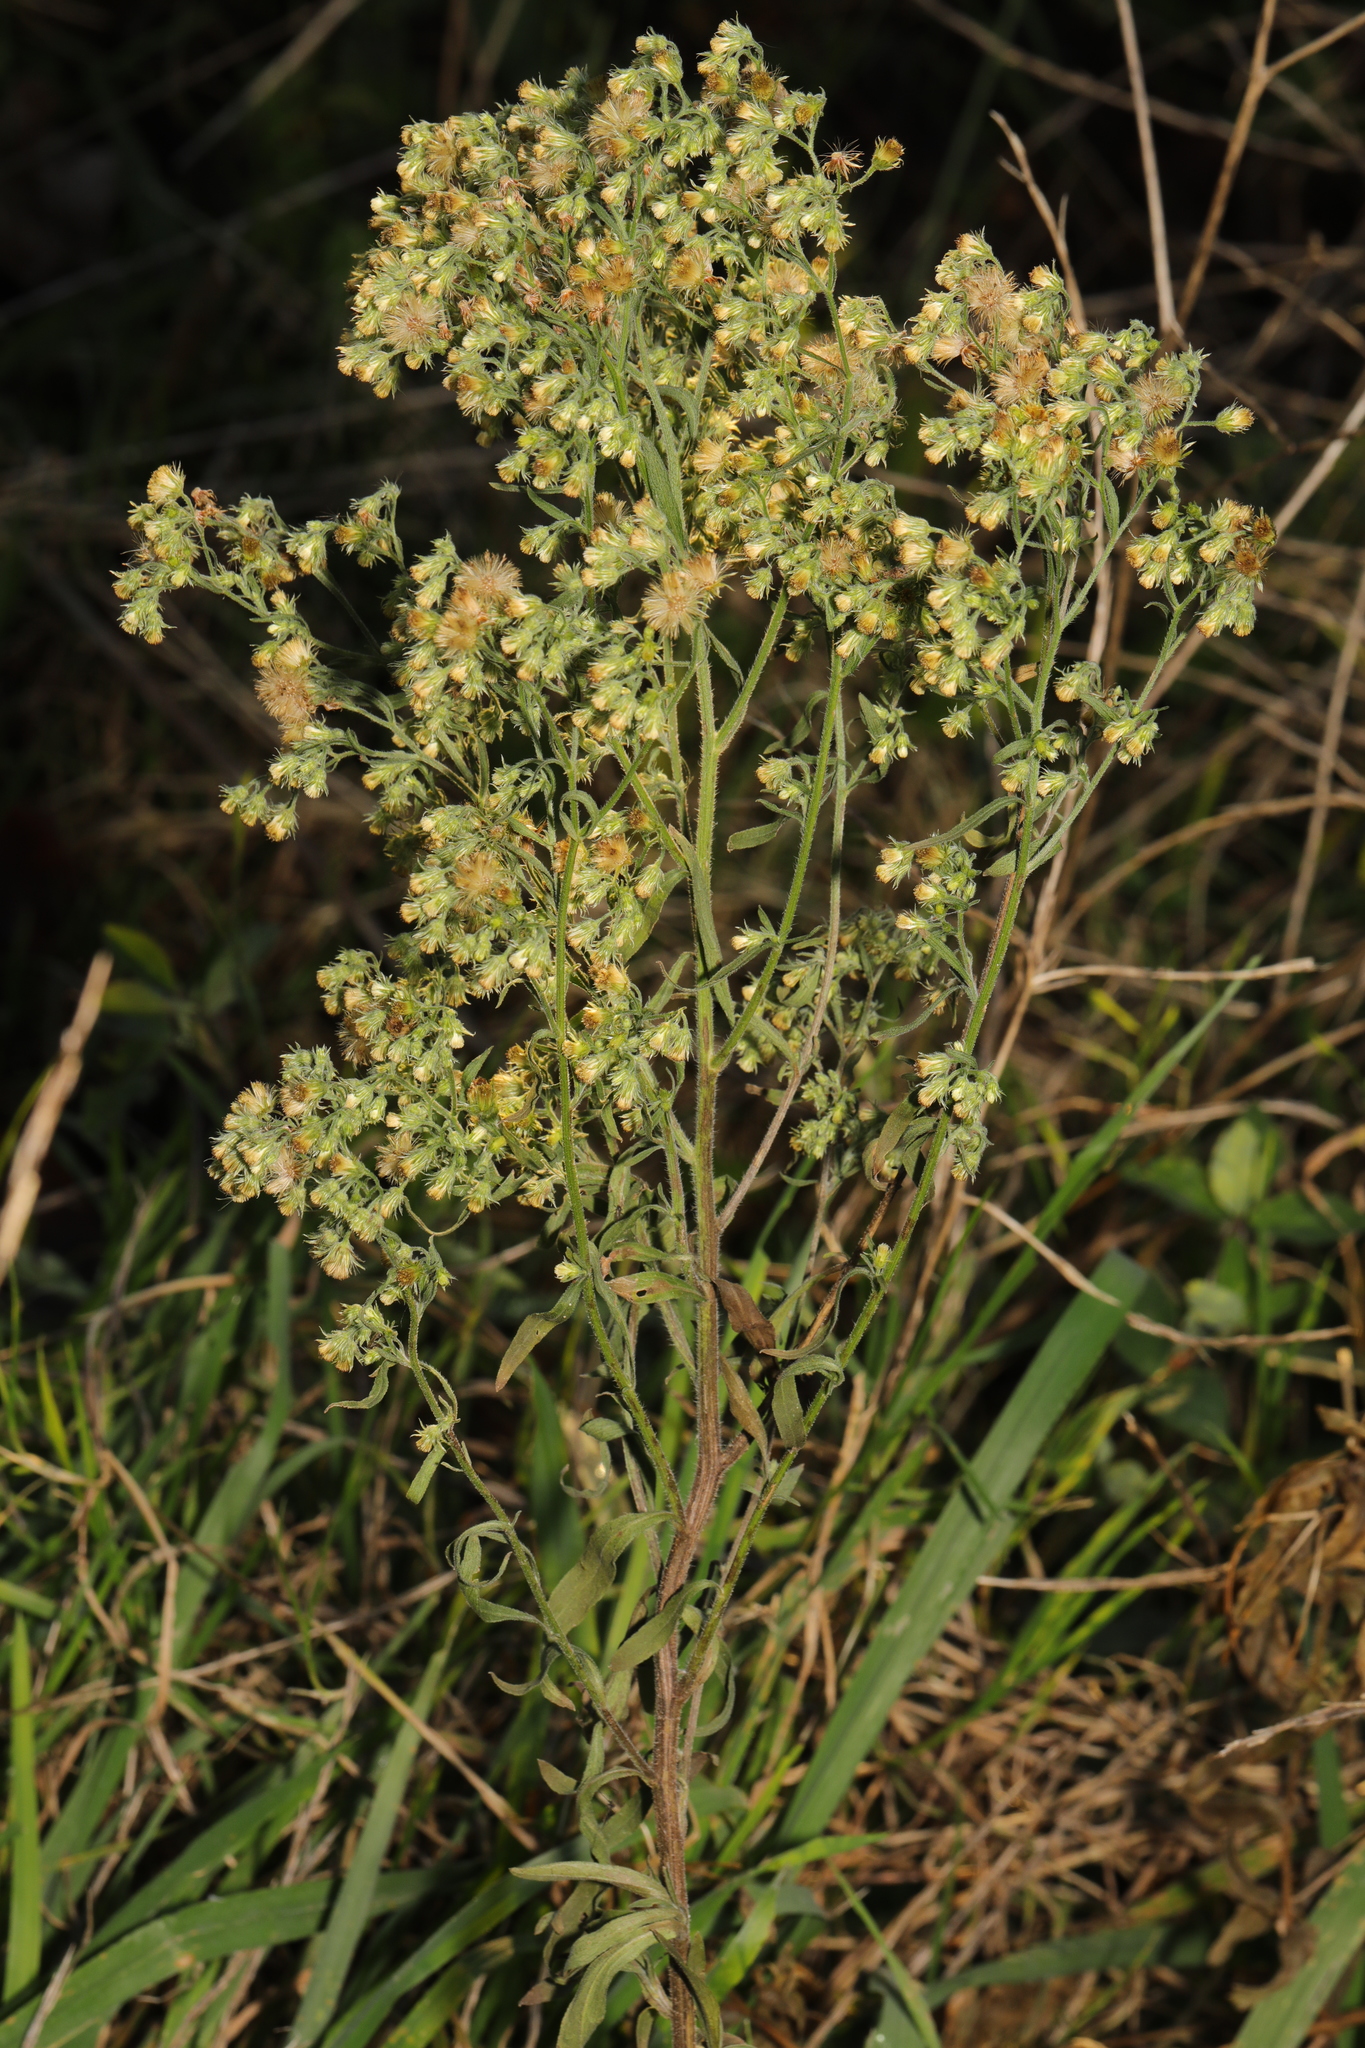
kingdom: Plantae
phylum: Tracheophyta
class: Magnoliopsida
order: Asterales
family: Asteraceae
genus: Erigeron
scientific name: Erigeron canadensis
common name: Canadian fleabane
